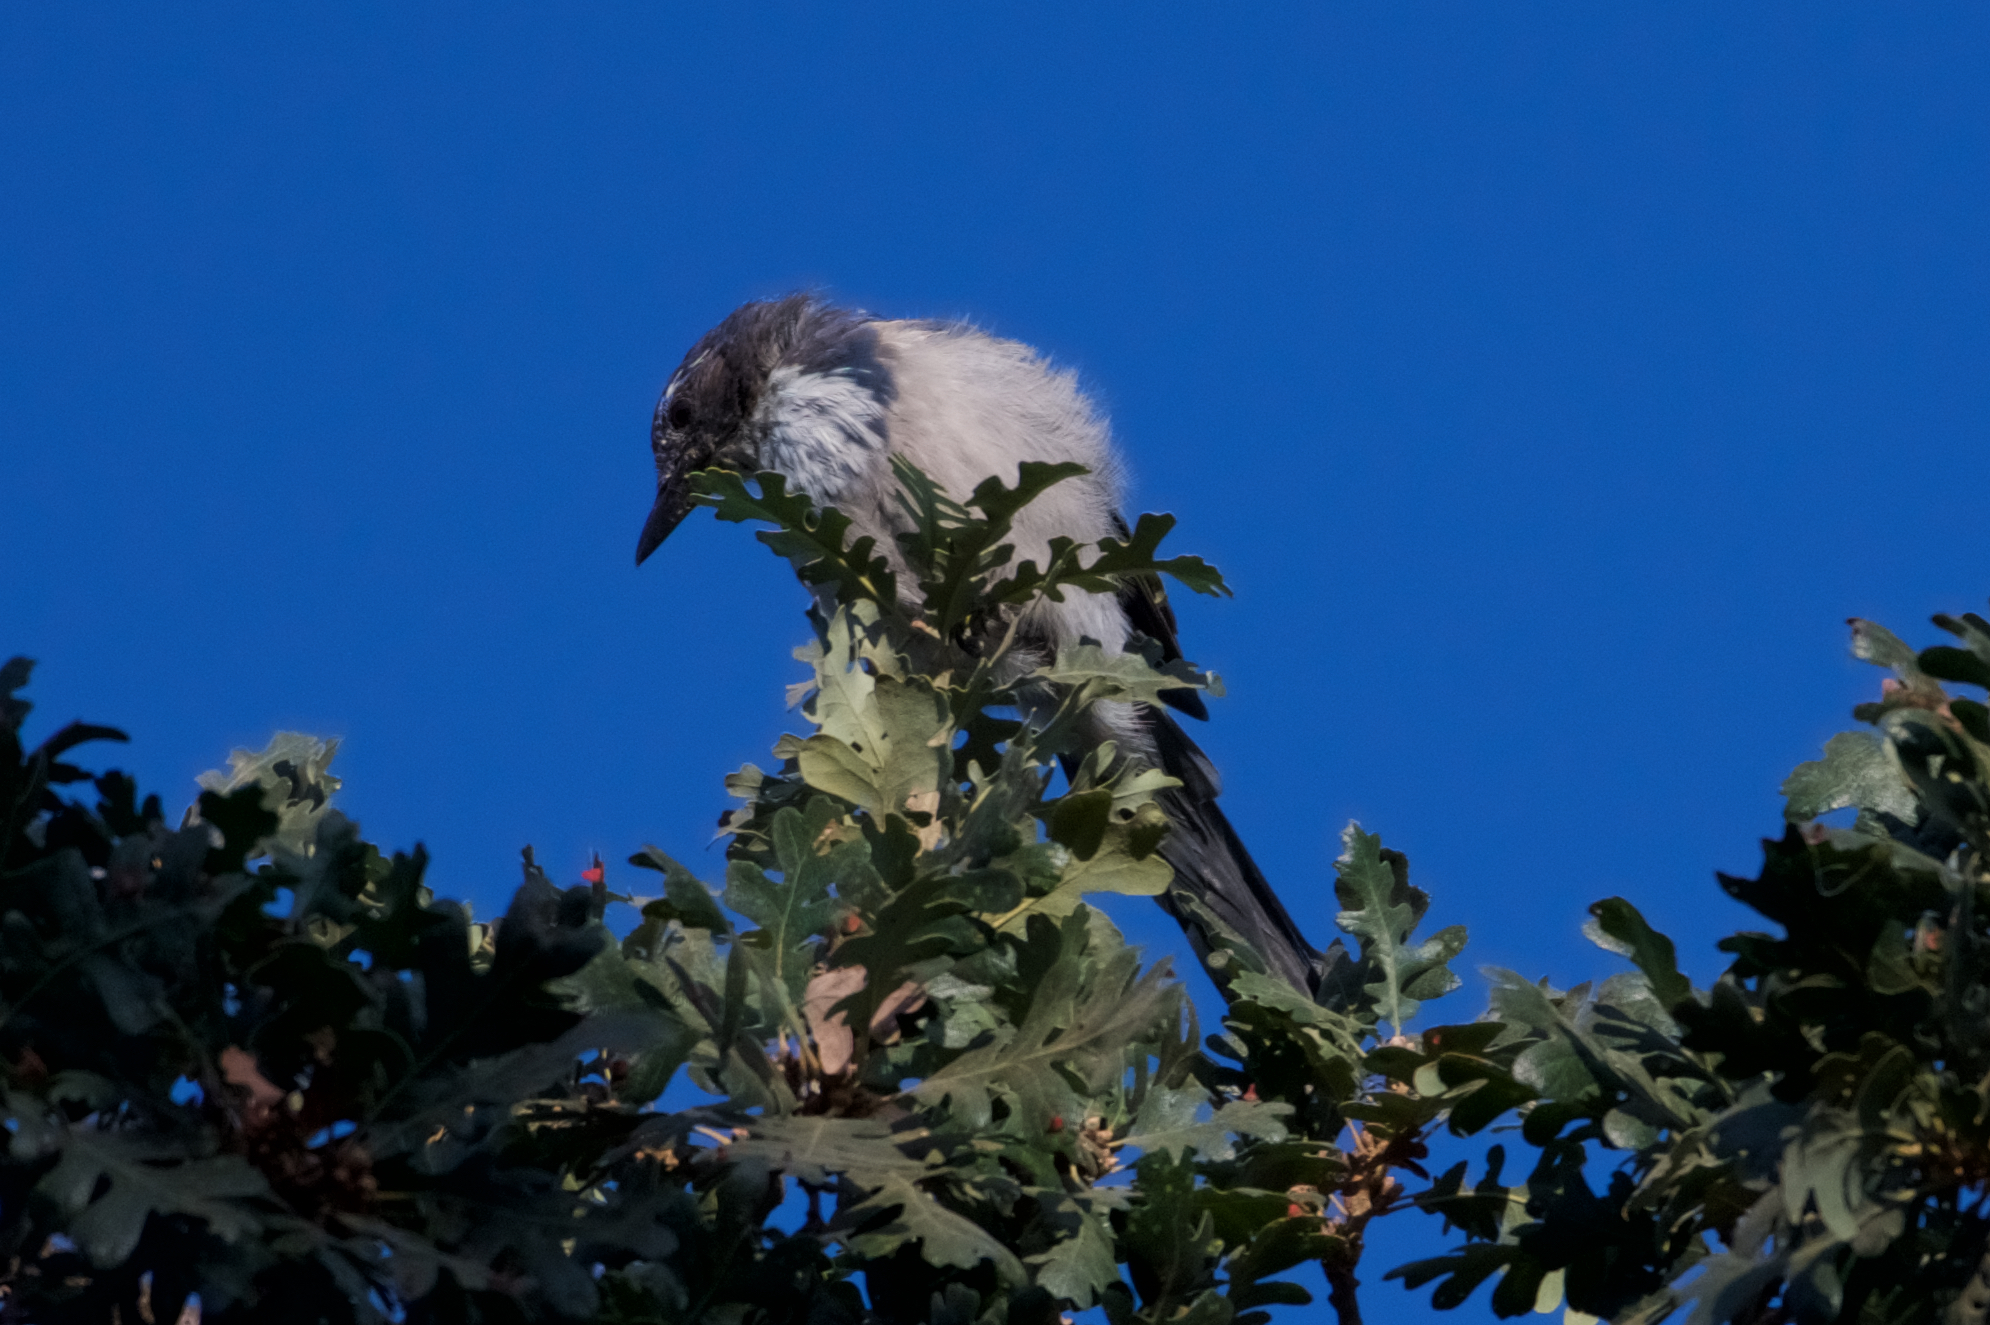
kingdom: Animalia
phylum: Chordata
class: Aves
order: Passeriformes
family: Corvidae
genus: Aphelocoma
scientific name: Aphelocoma californica
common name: California scrub-jay
